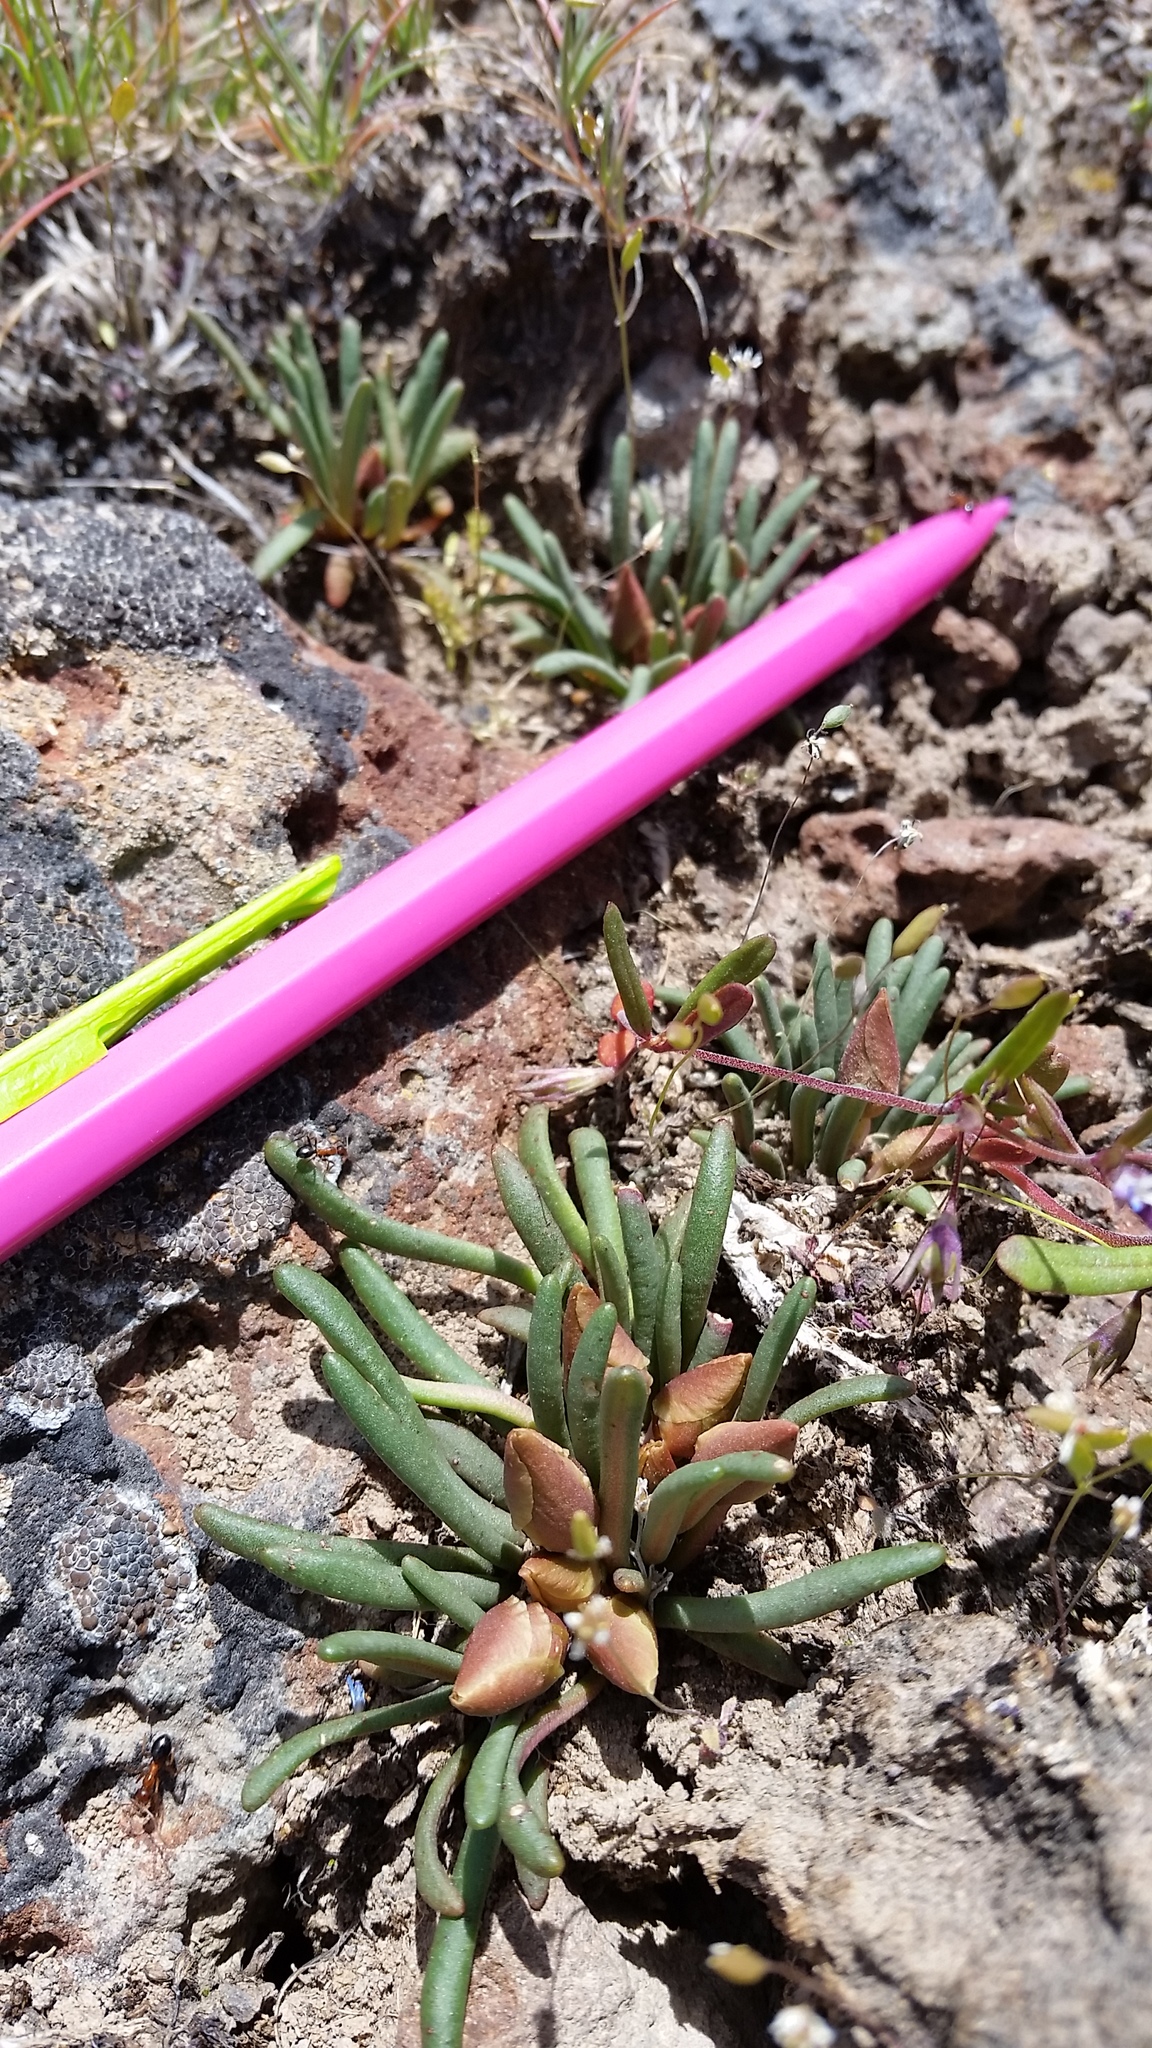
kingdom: Plantae
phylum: Tracheophyta
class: Magnoliopsida
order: Caryophyllales
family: Montiaceae
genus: Lewisia
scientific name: Lewisia rediviva
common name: Bitter-root
